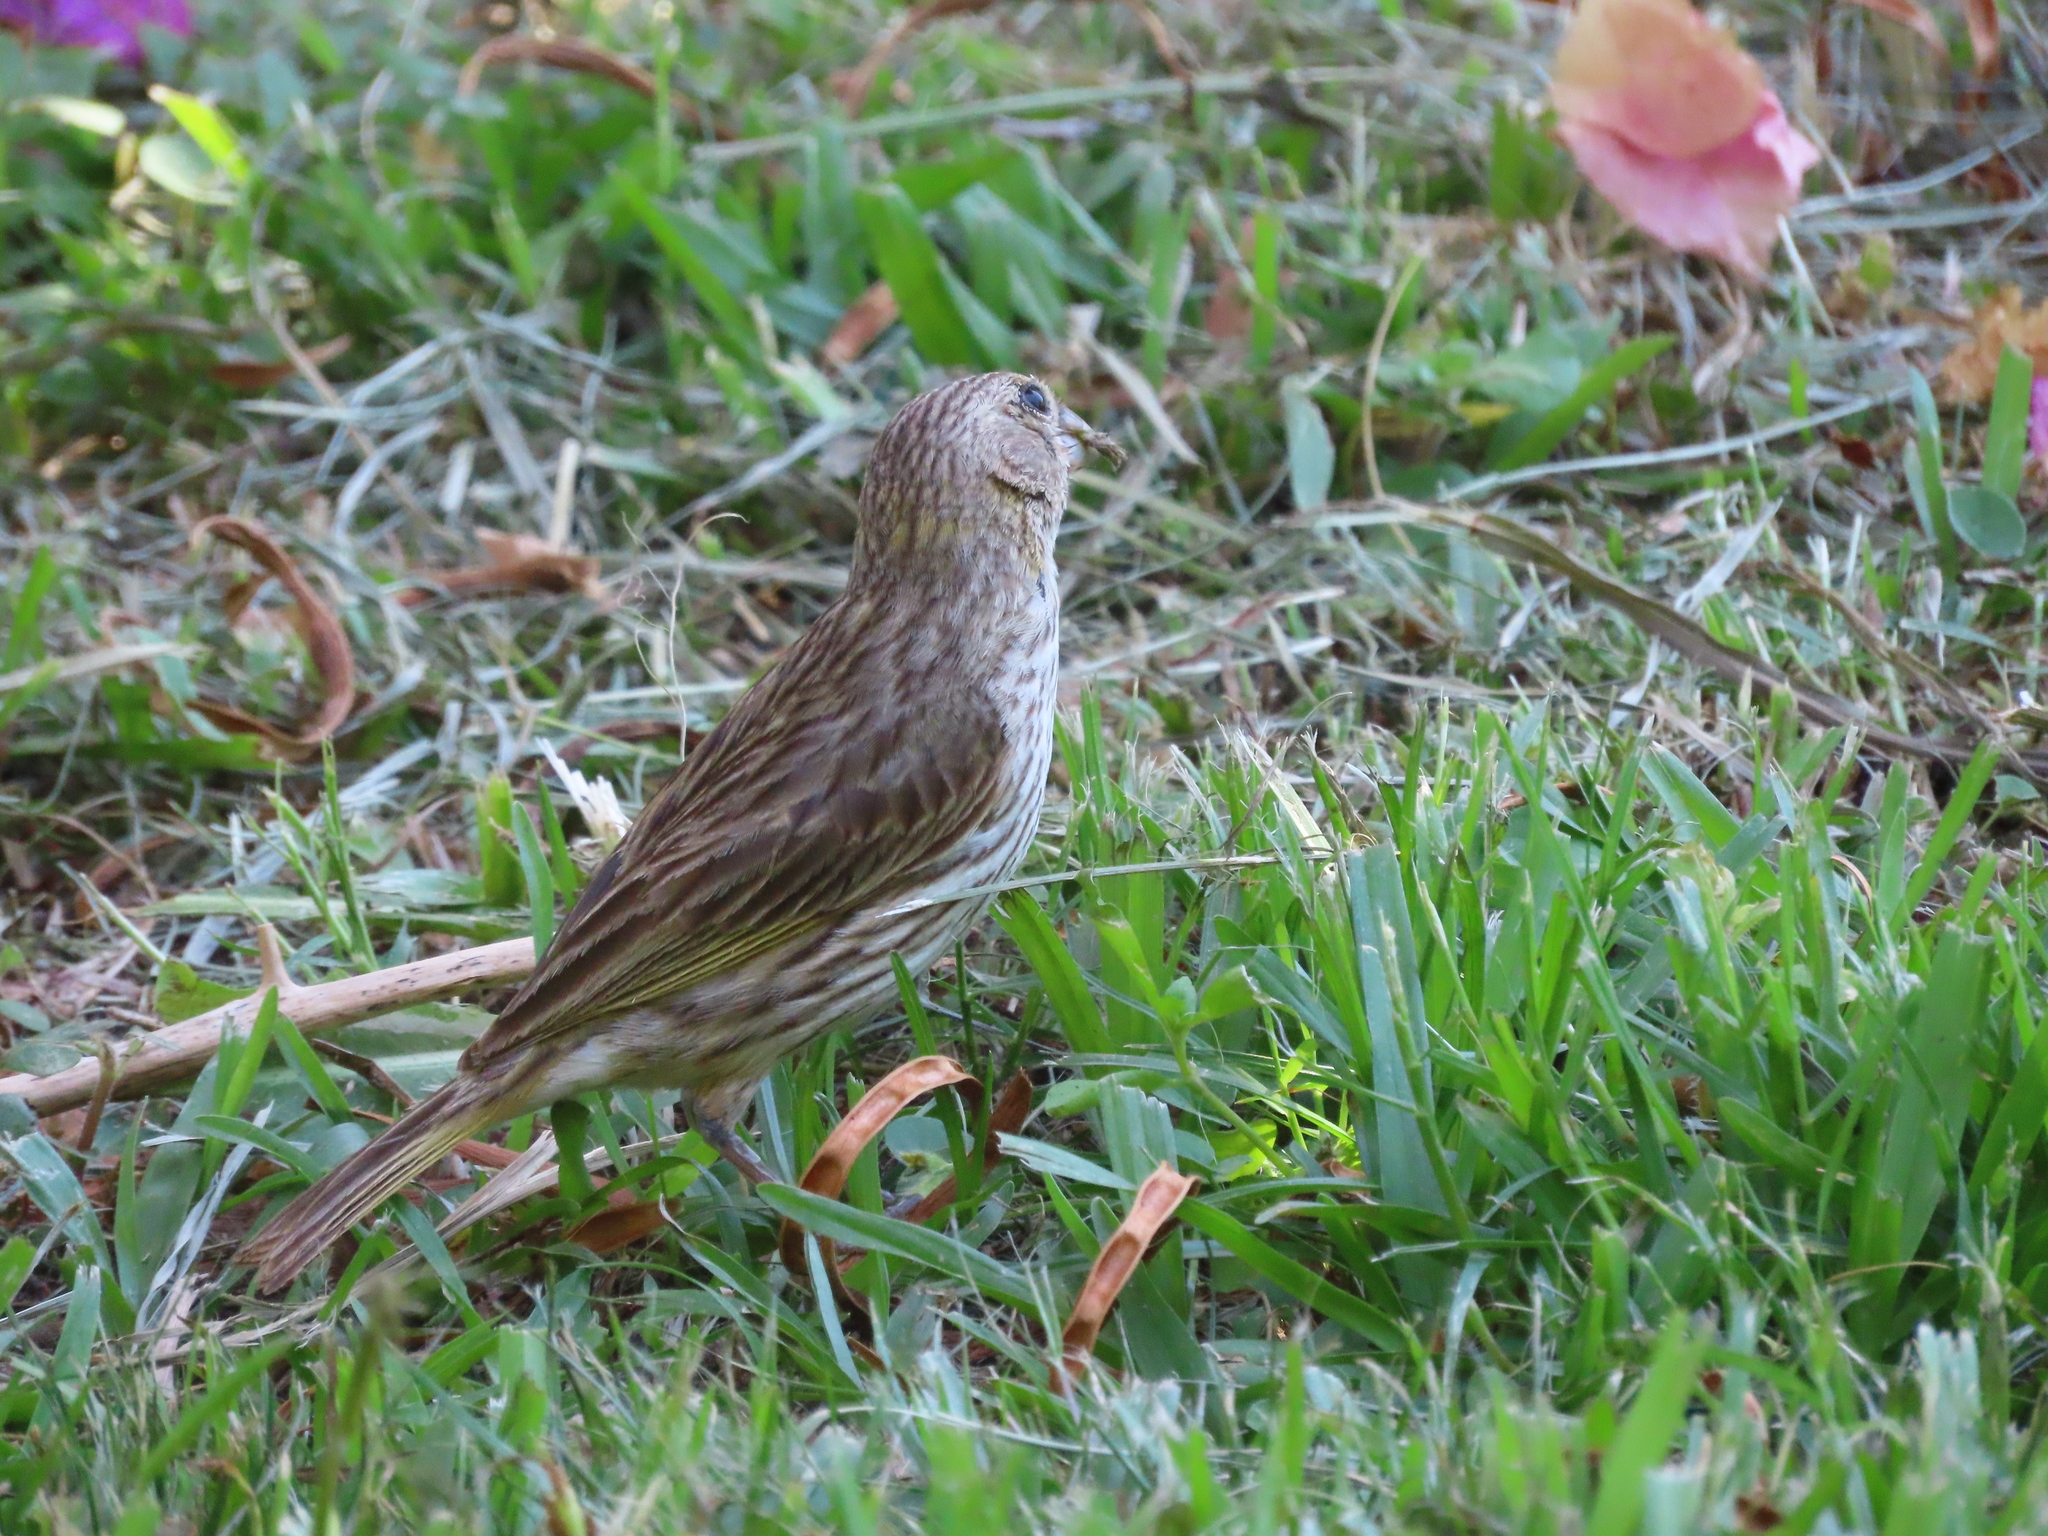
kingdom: Animalia
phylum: Chordata
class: Aves
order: Passeriformes
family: Thraupidae
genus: Sicalis
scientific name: Sicalis flaveola
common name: Saffron finch
